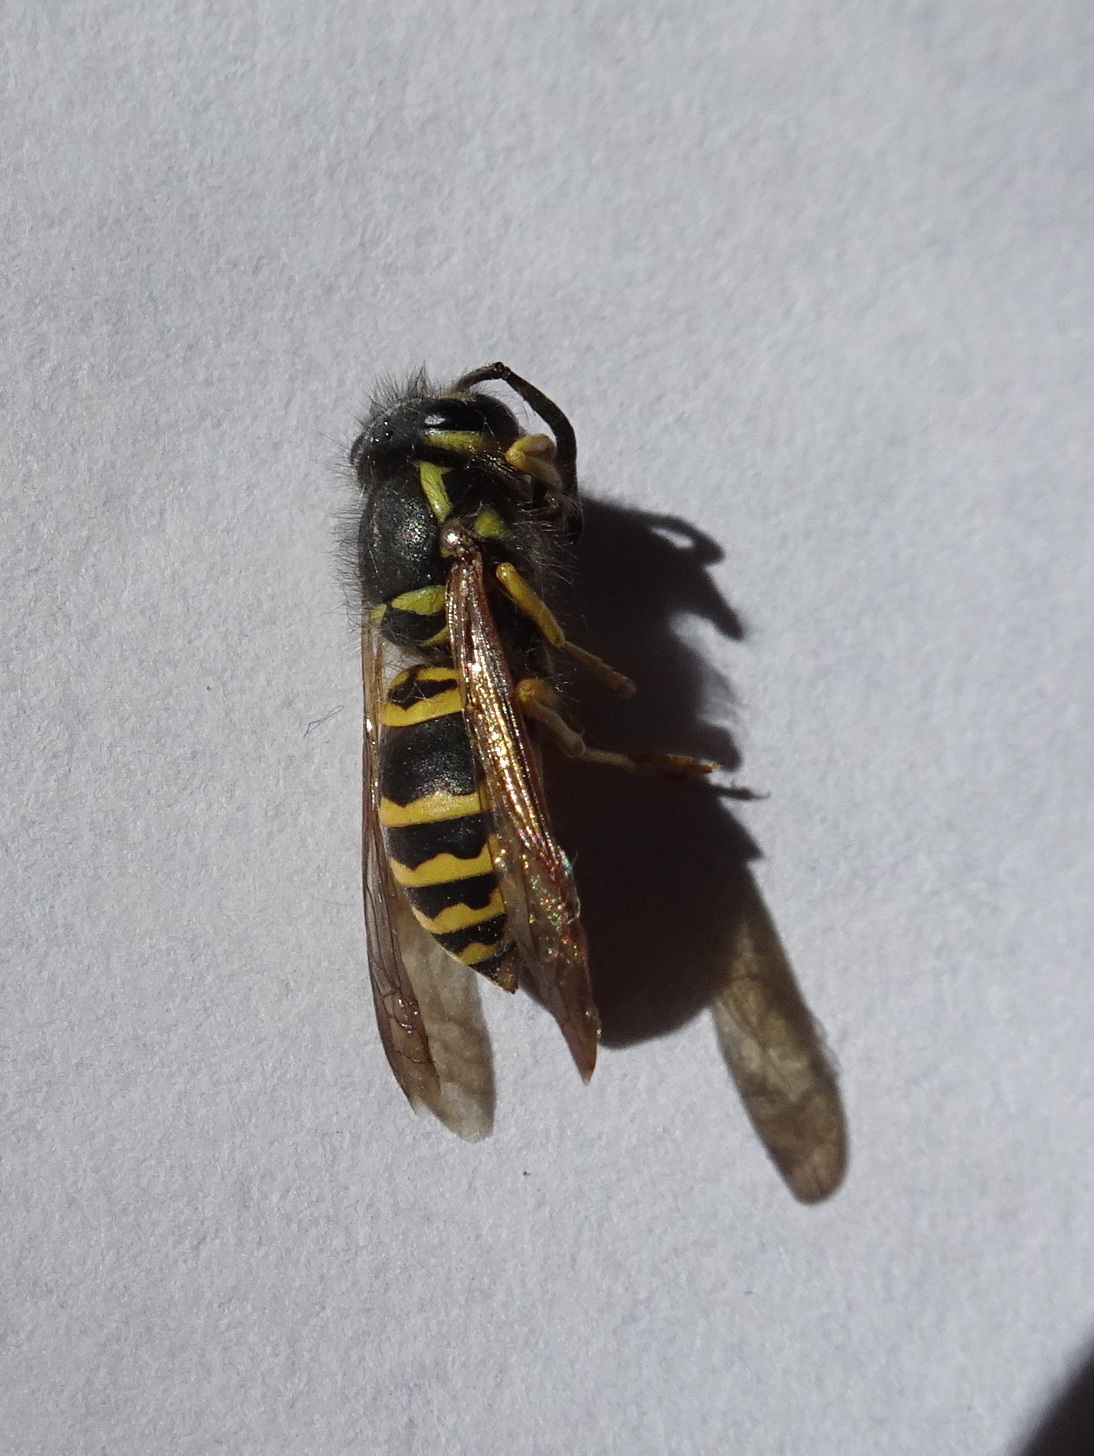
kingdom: Animalia
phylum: Arthropoda
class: Insecta
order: Hymenoptera
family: Vespidae
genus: Vespula
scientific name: Vespula maculifrons
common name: Eastern yellowjacket
